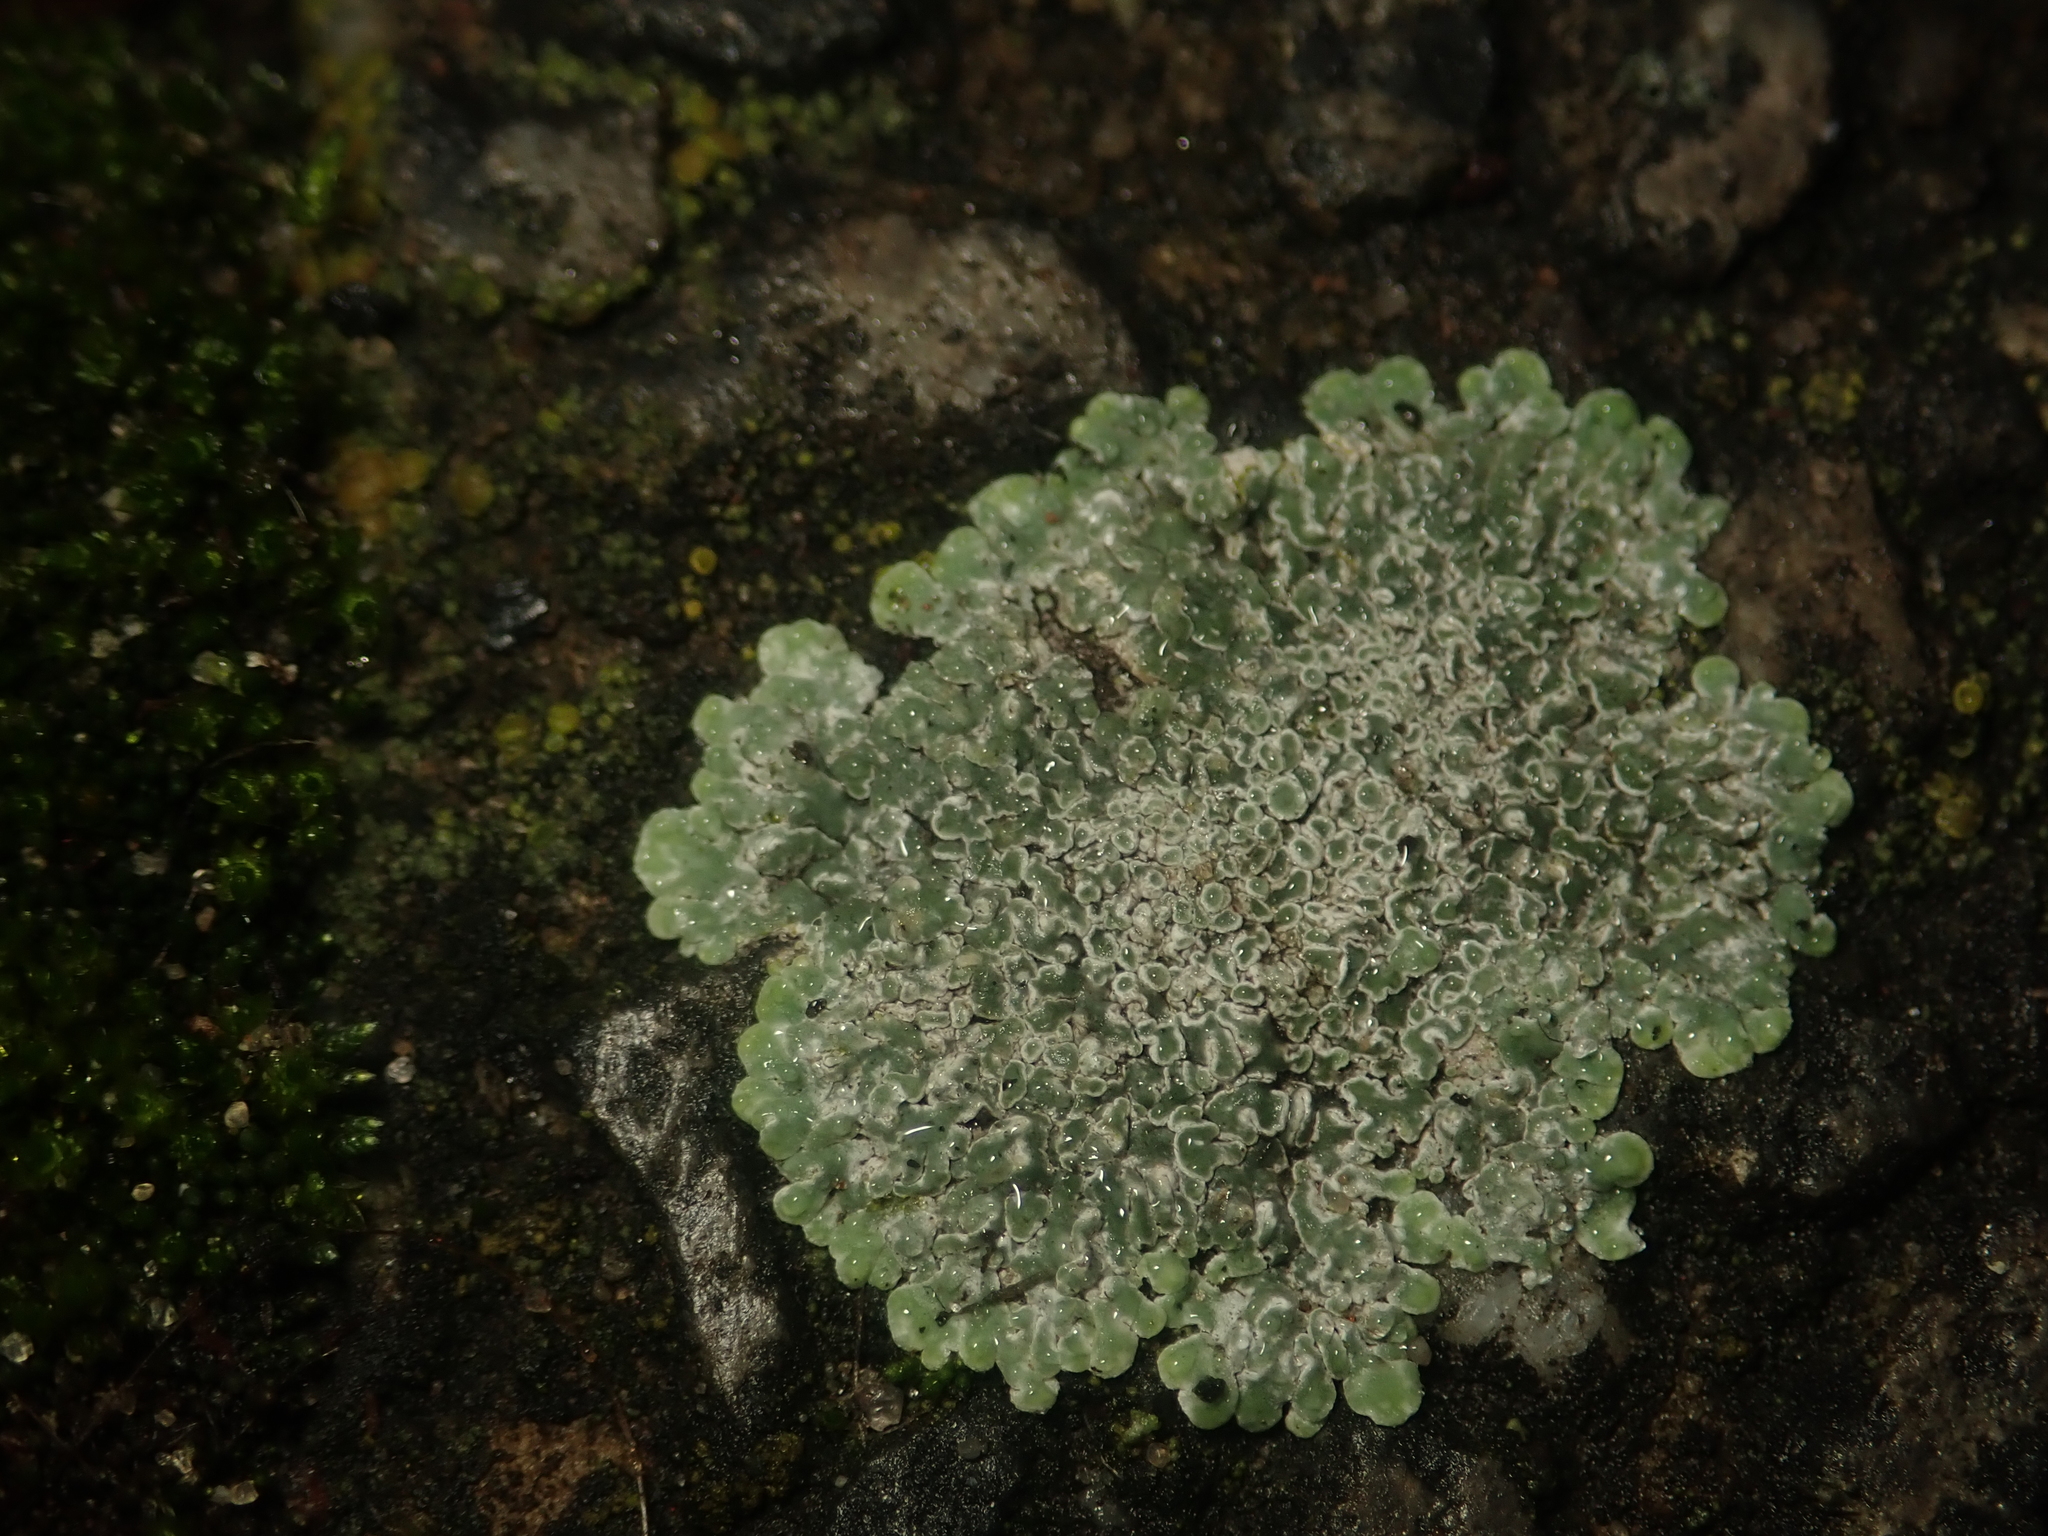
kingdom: Fungi
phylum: Ascomycota
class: Lecanoromycetes
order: Lecanorales
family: Lecanoraceae
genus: Protoparmeliopsis
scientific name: Protoparmeliopsis muralis
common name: Stonewall rim lichen
